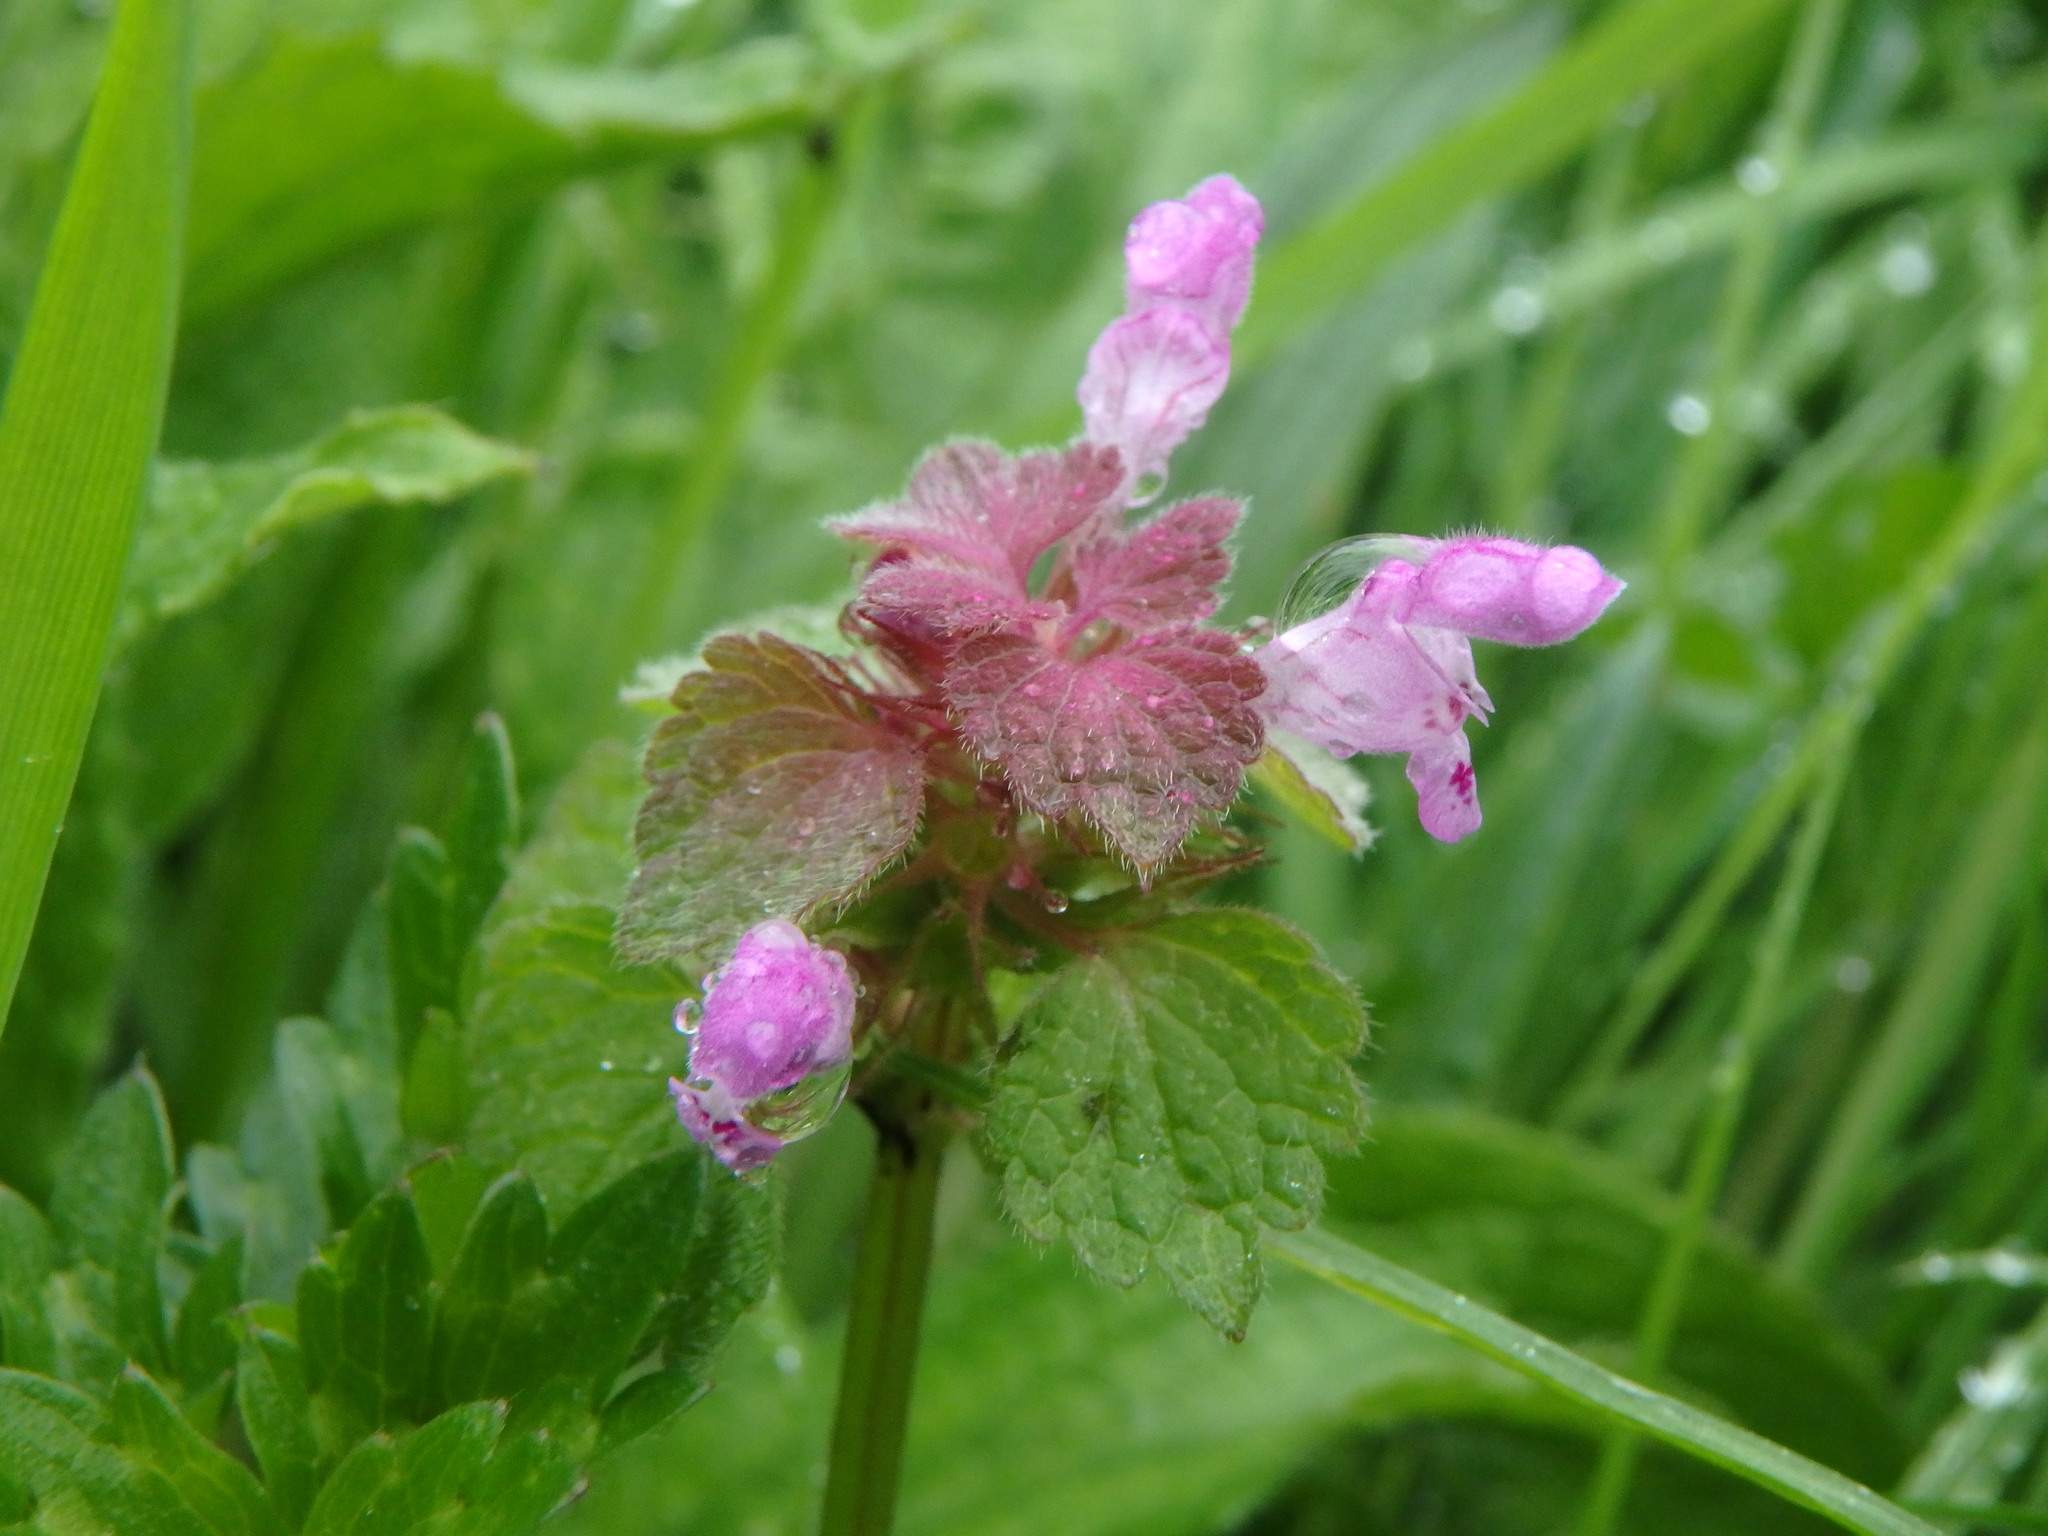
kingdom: Plantae
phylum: Tracheophyta
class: Magnoliopsida
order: Lamiales
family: Lamiaceae
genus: Lamium
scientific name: Lamium purpureum
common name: Red dead-nettle
